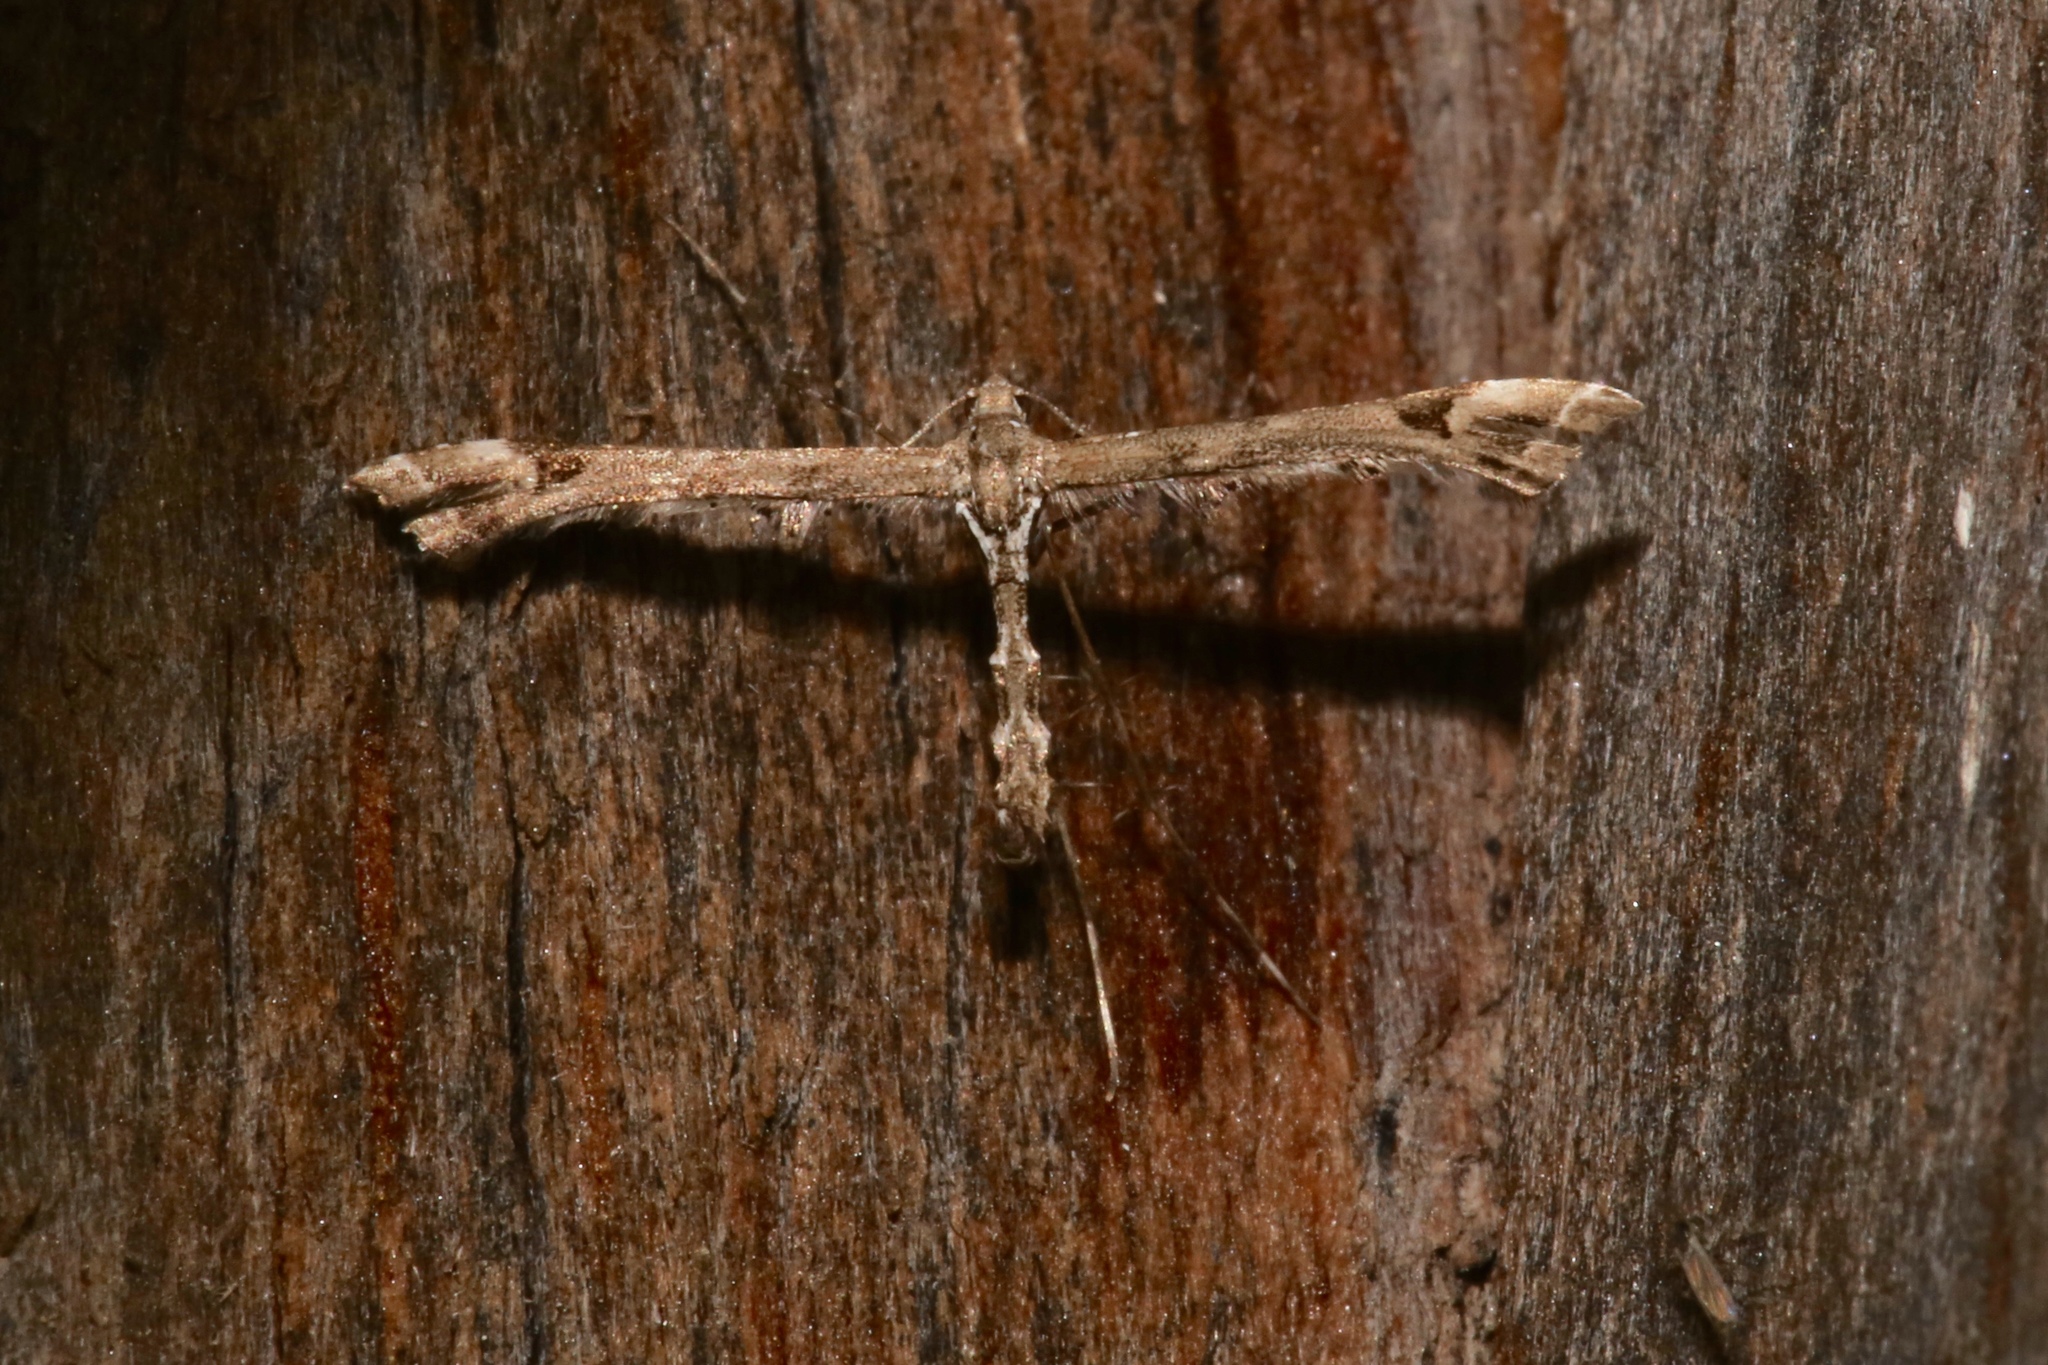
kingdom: Animalia
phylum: Arthropoda
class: Insecta
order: Lepidoptera
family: Pterophoridae
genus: Amblyptilia
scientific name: Amblyptilia pica
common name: Geranium plume moth
